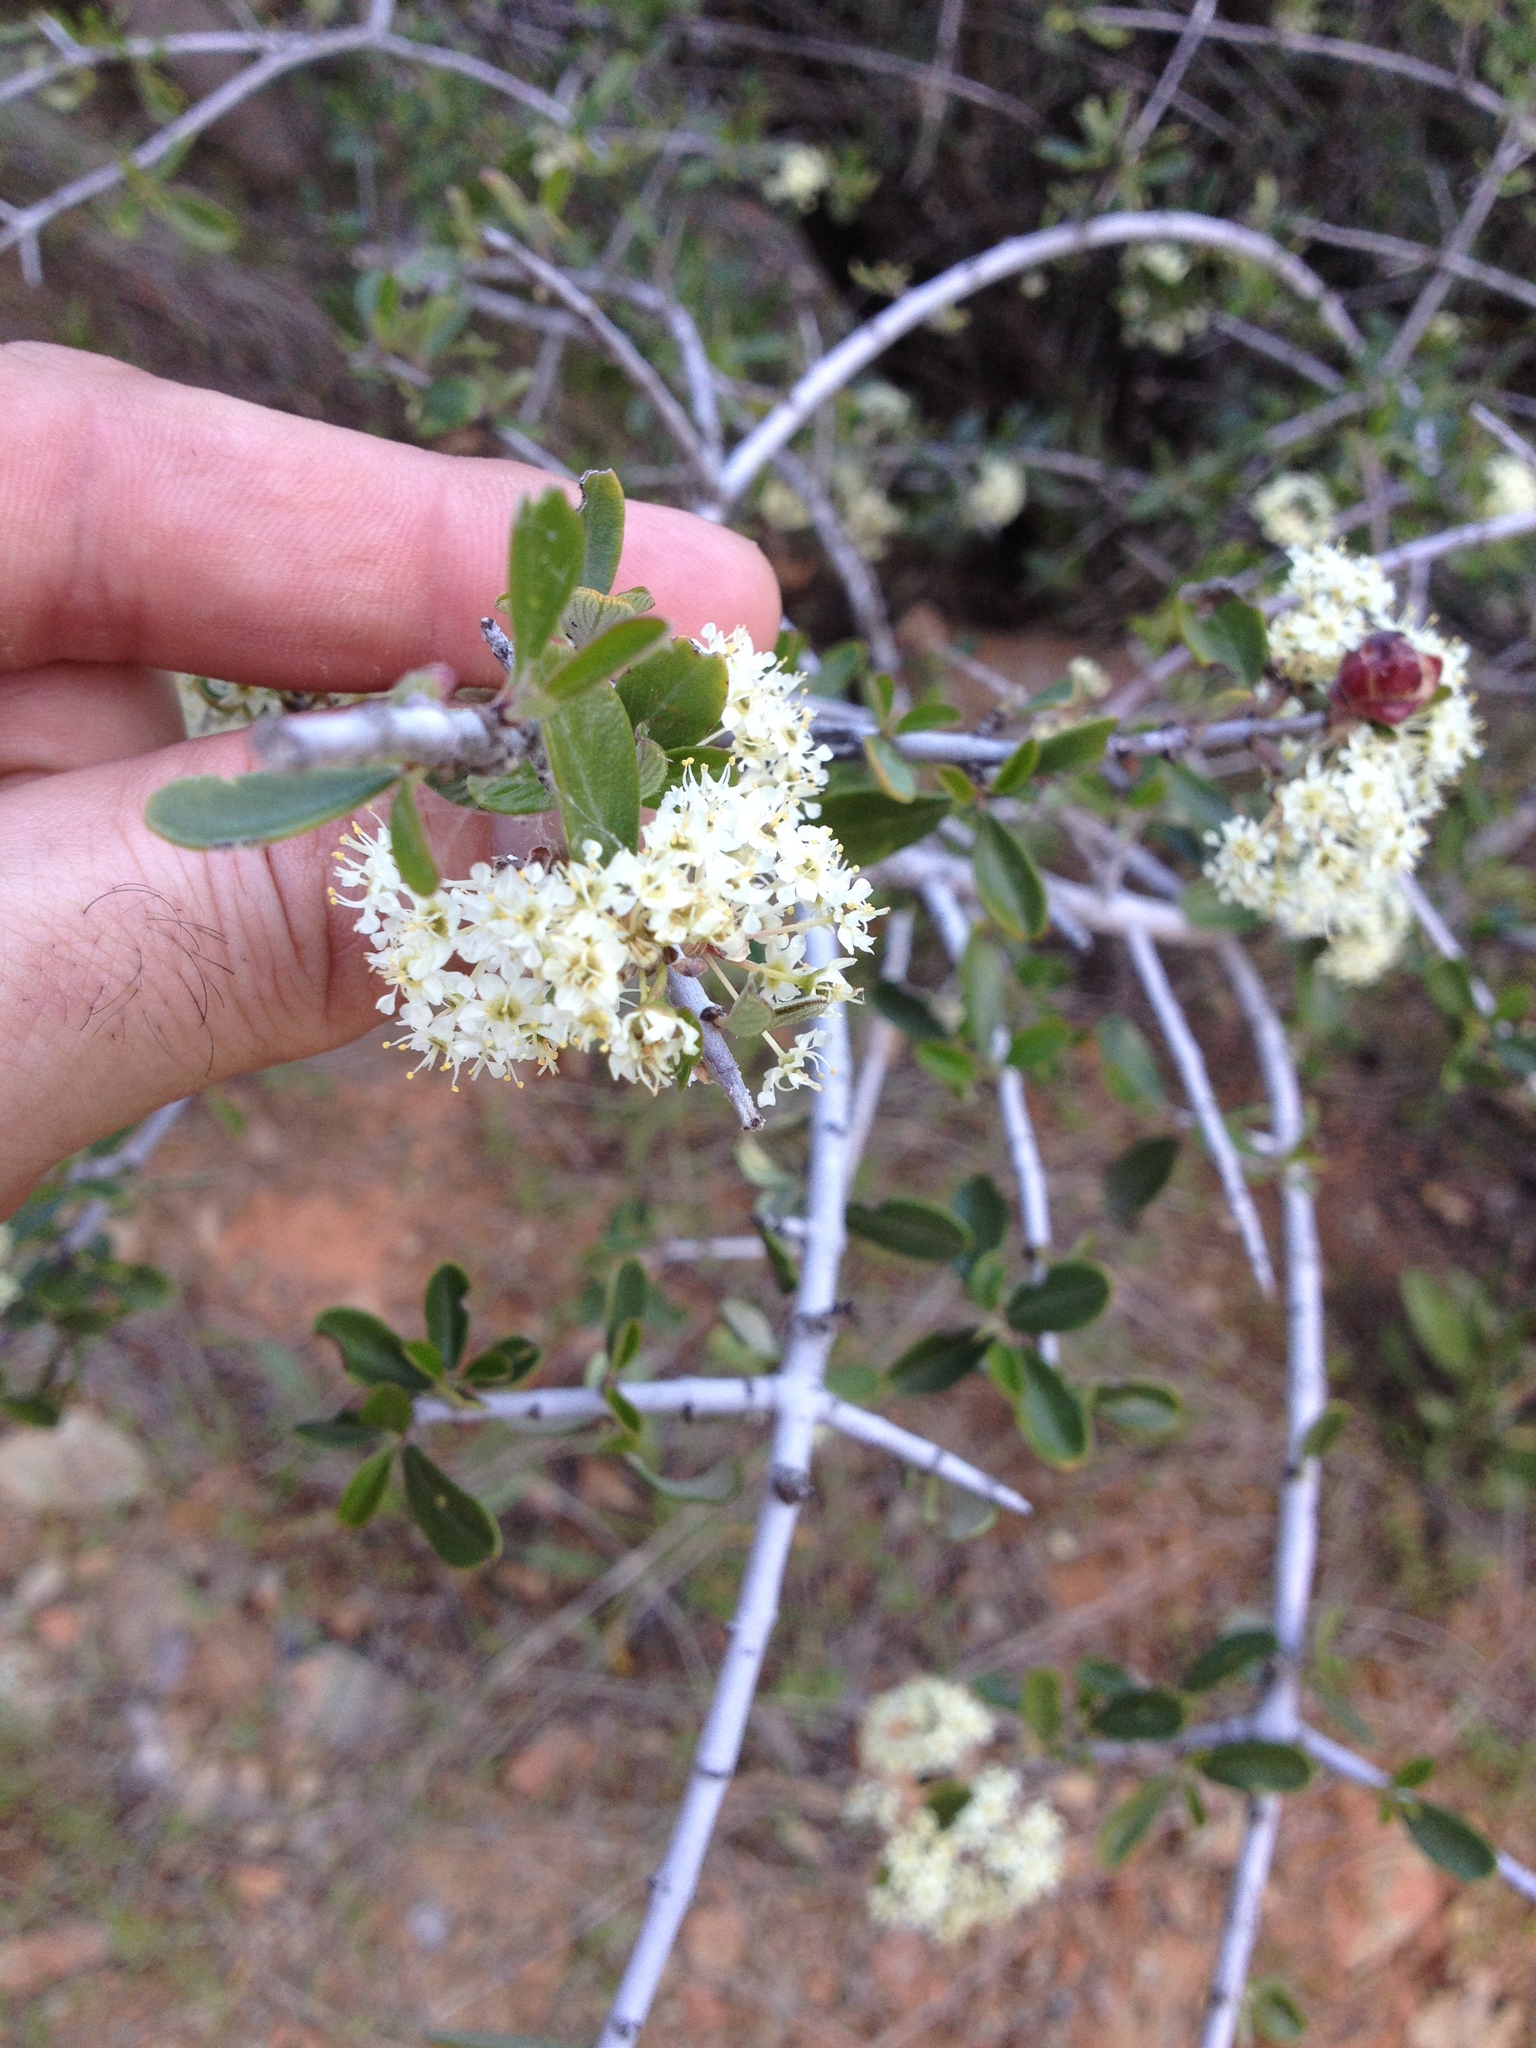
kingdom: Plantae
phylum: Tracheophyta
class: Magnoliopsida
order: Rosales
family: Rhamnaceae
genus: Ceanothus
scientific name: Ceanothus cuneatus
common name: Cuneate ceanothus
